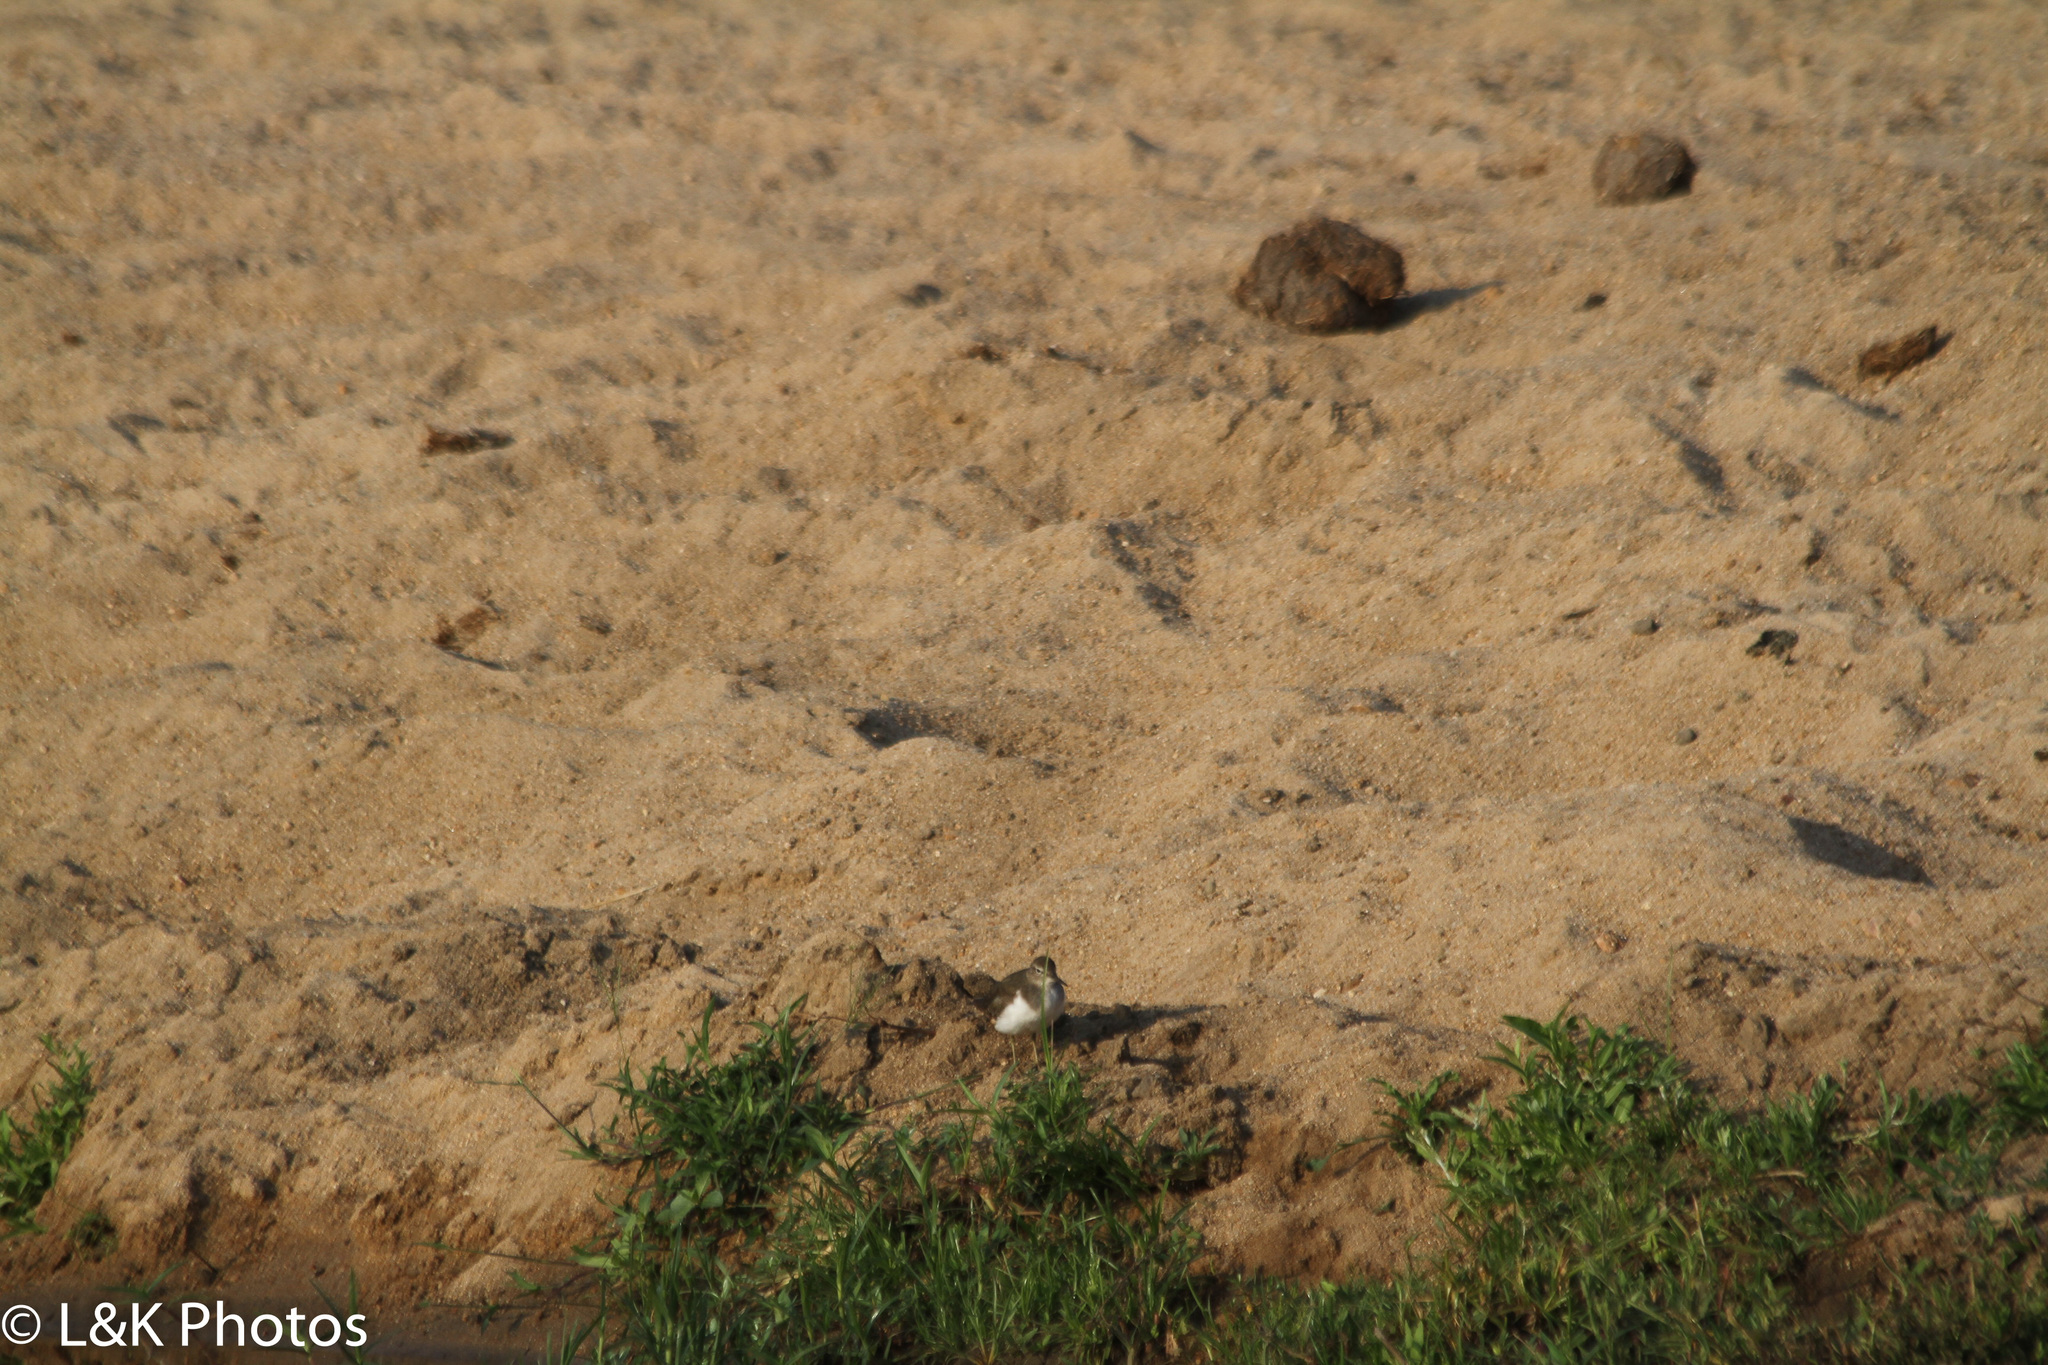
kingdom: Animalia
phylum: Chordata
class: Aves
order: Charadriiformes
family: Scolopacidae
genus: Actitis
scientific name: Actitis hypoleucos
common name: Common sandpiper
